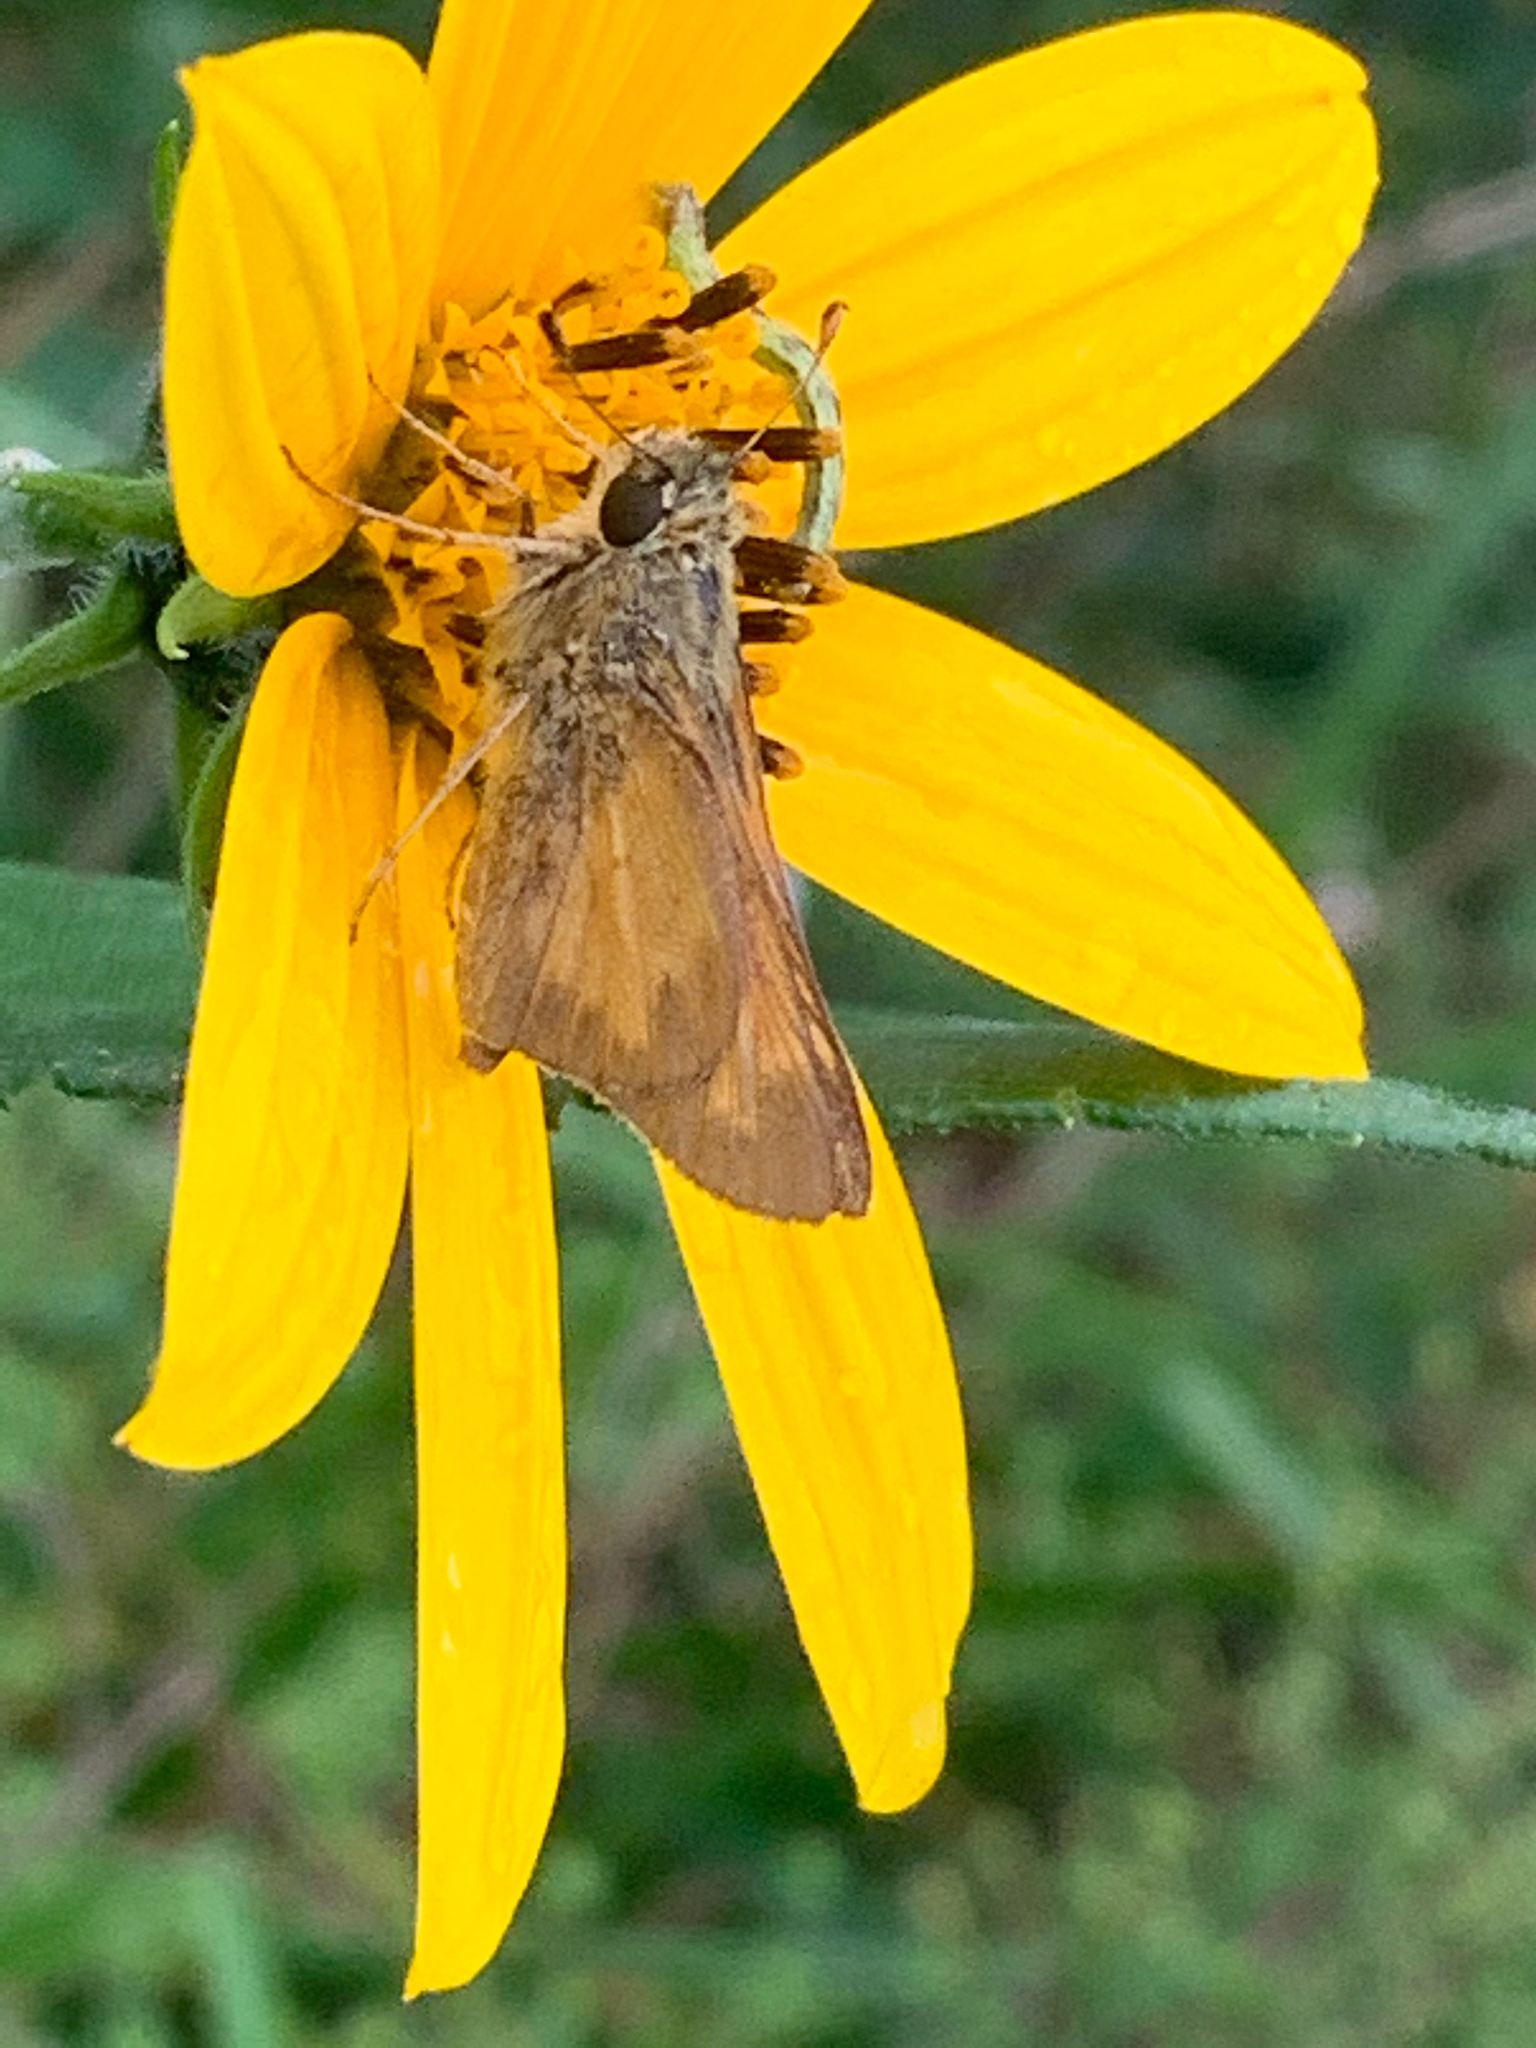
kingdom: Animalia
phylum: Arthropoda
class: Insecta
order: Lepidoptera
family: Hesperiidae
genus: Atalopedes
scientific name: Atalopedes
